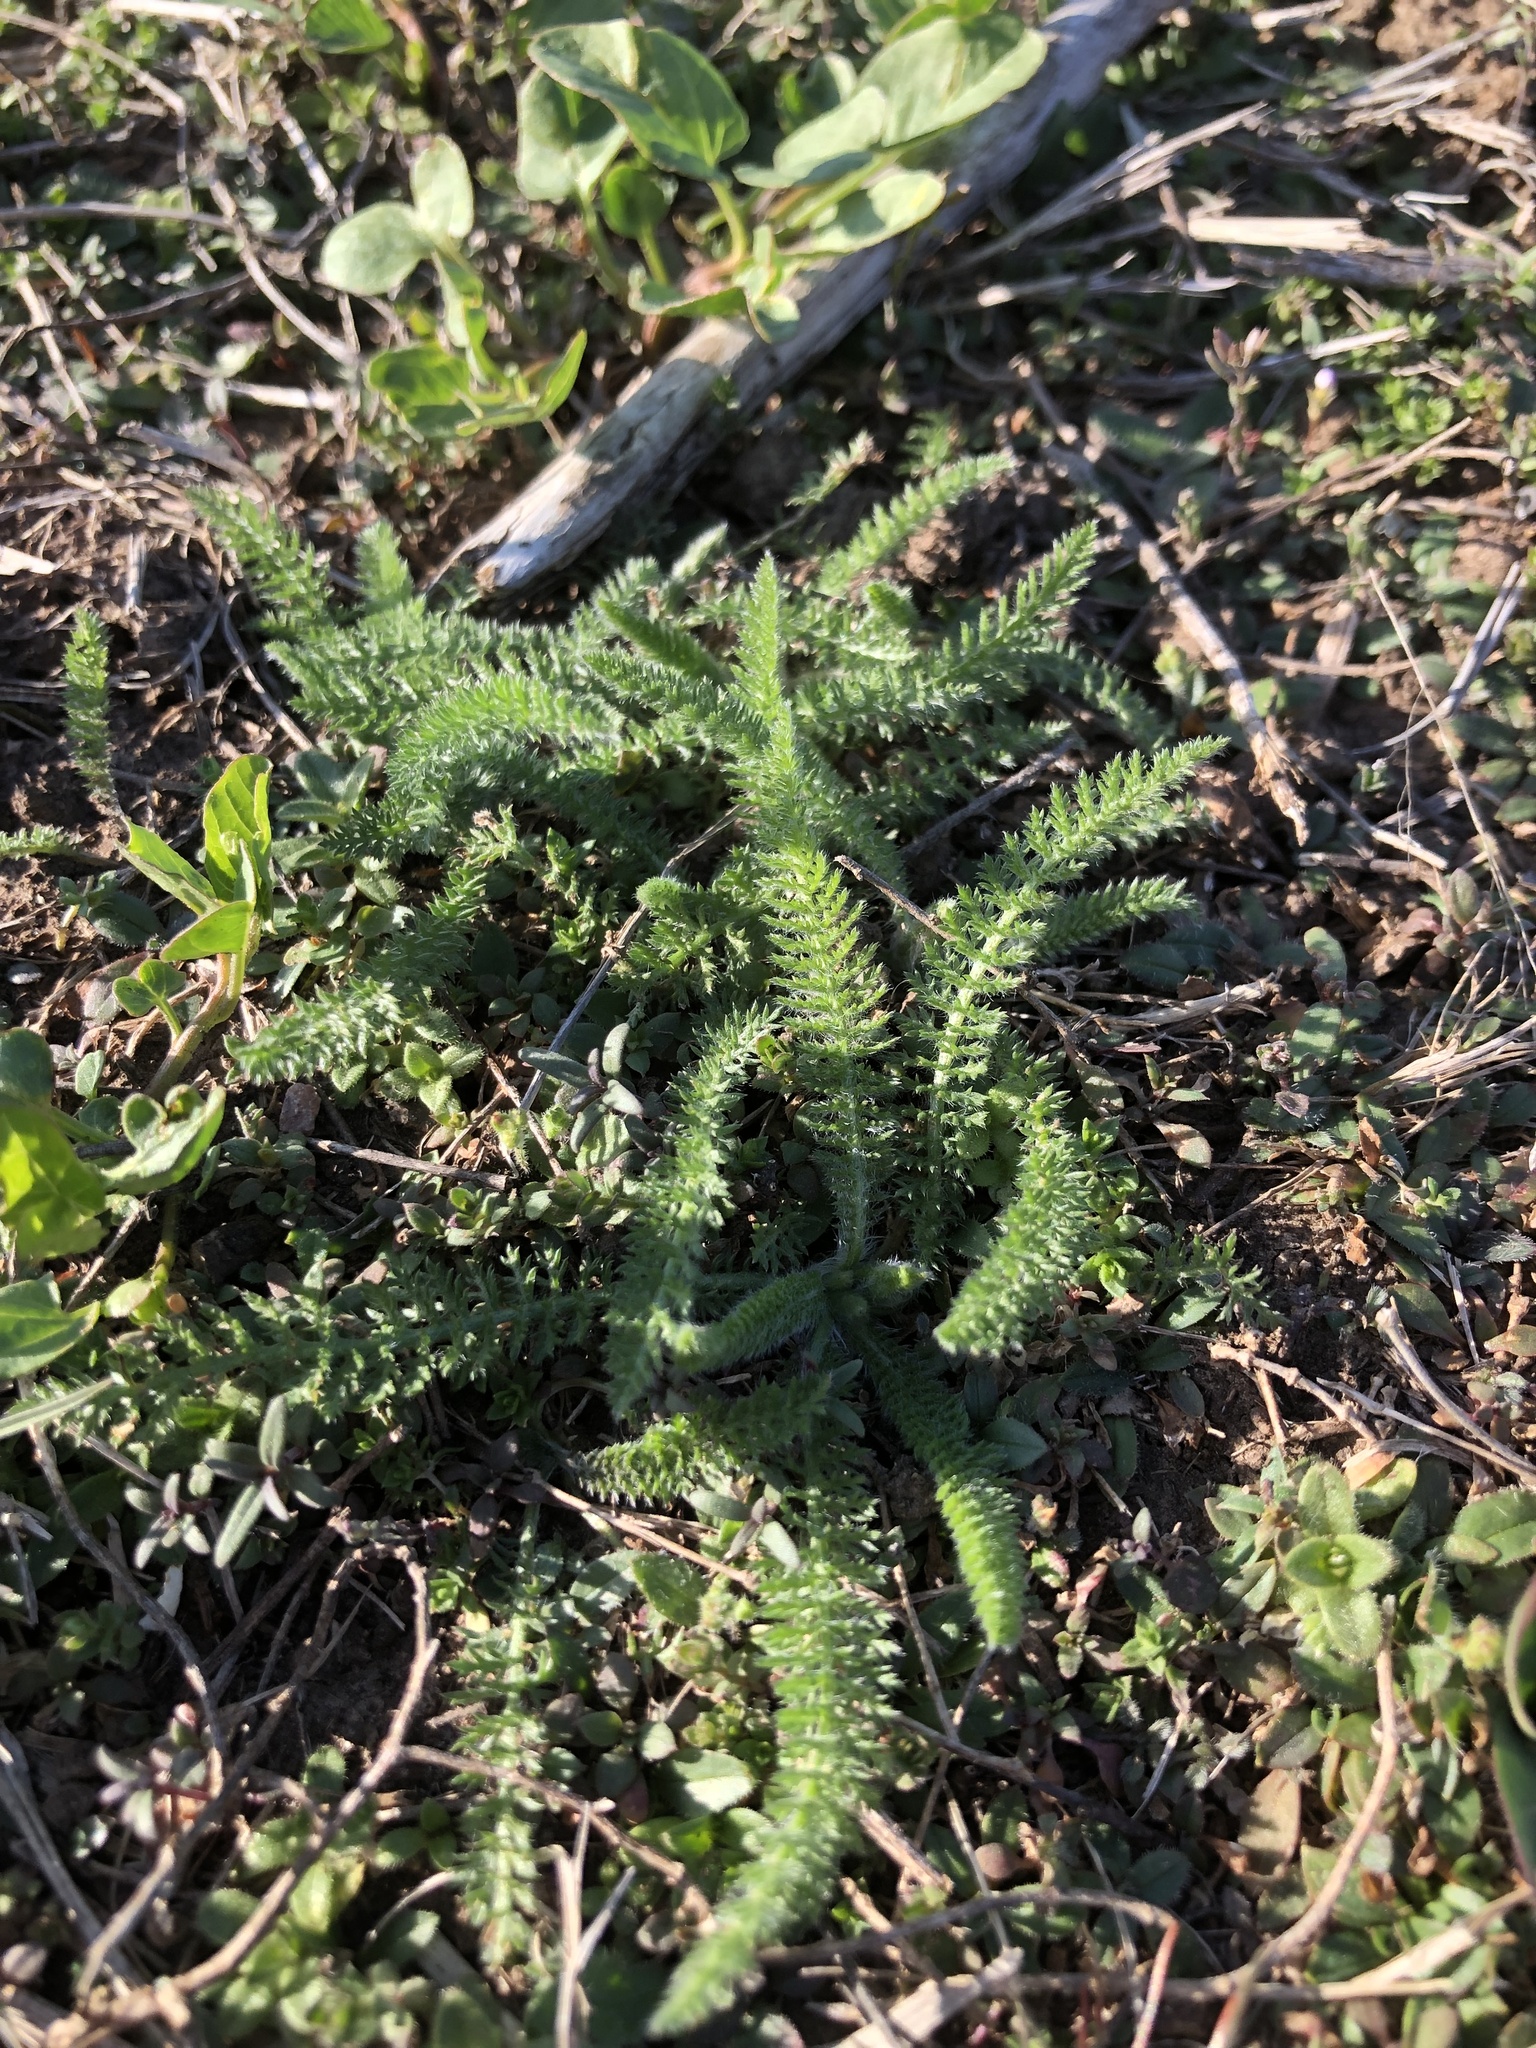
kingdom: Plantae
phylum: Tracheophyta
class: Magnoliopsida
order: Asterales
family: Asteraceae
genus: Achillea
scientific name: Achillea millefolium
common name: Yarrow
